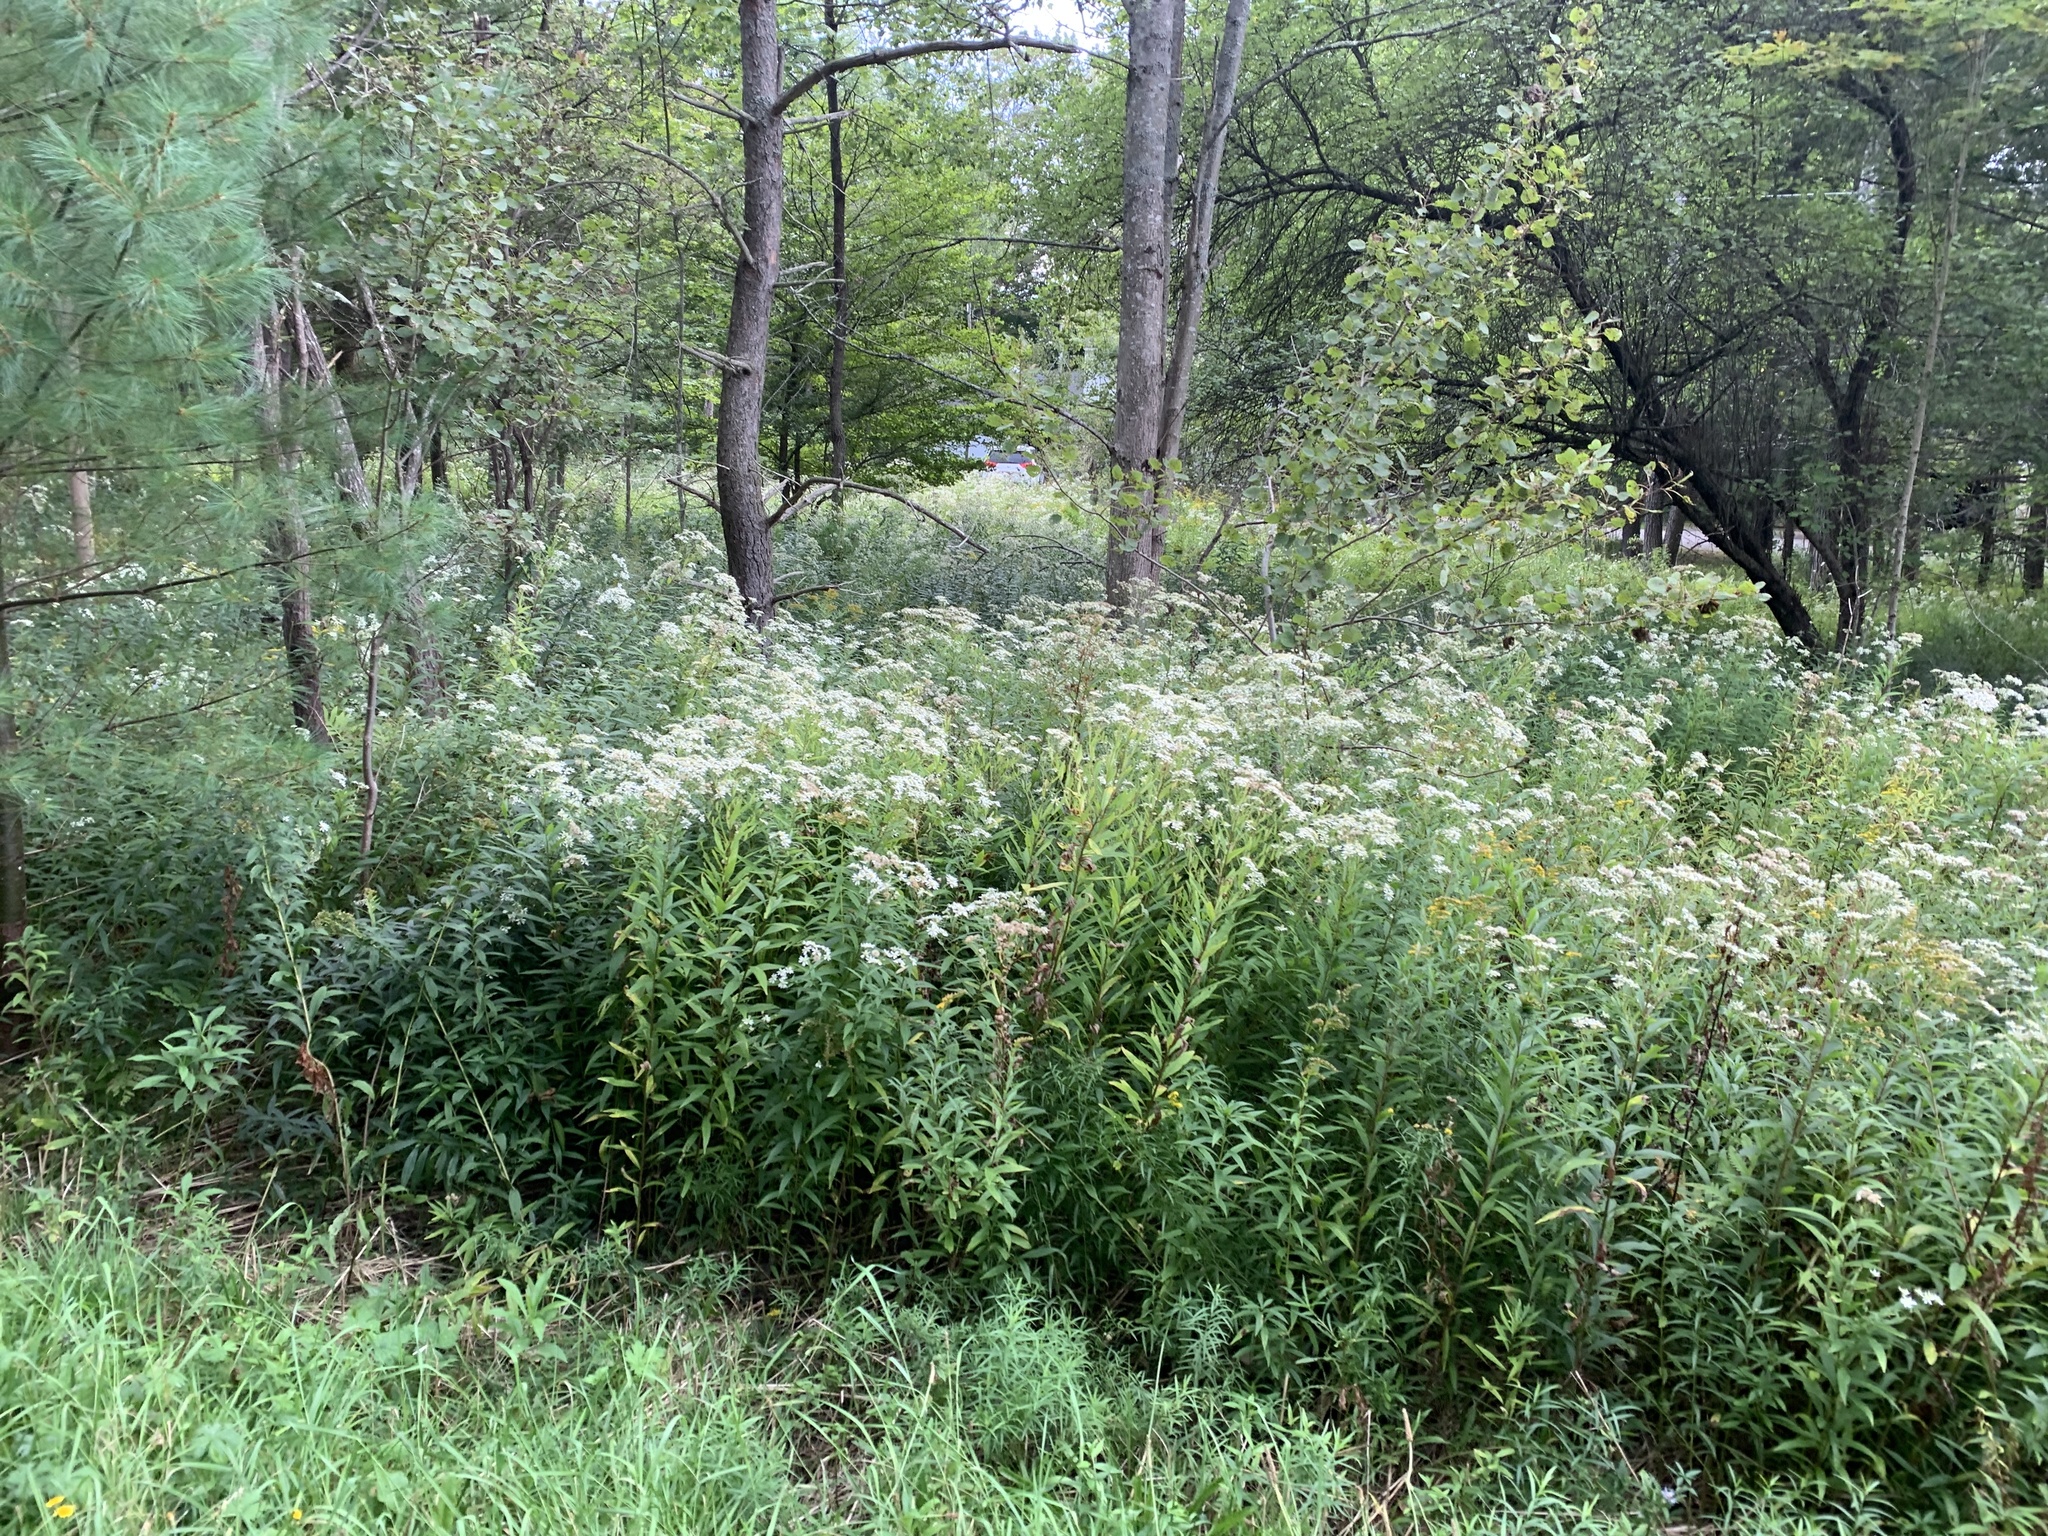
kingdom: Plantae
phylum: Tracheophyta
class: Magnoliopsida
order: Asterales
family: Asteraceae
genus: Doellingeria
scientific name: Doellingeria umbellata
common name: Flat-top white aster
